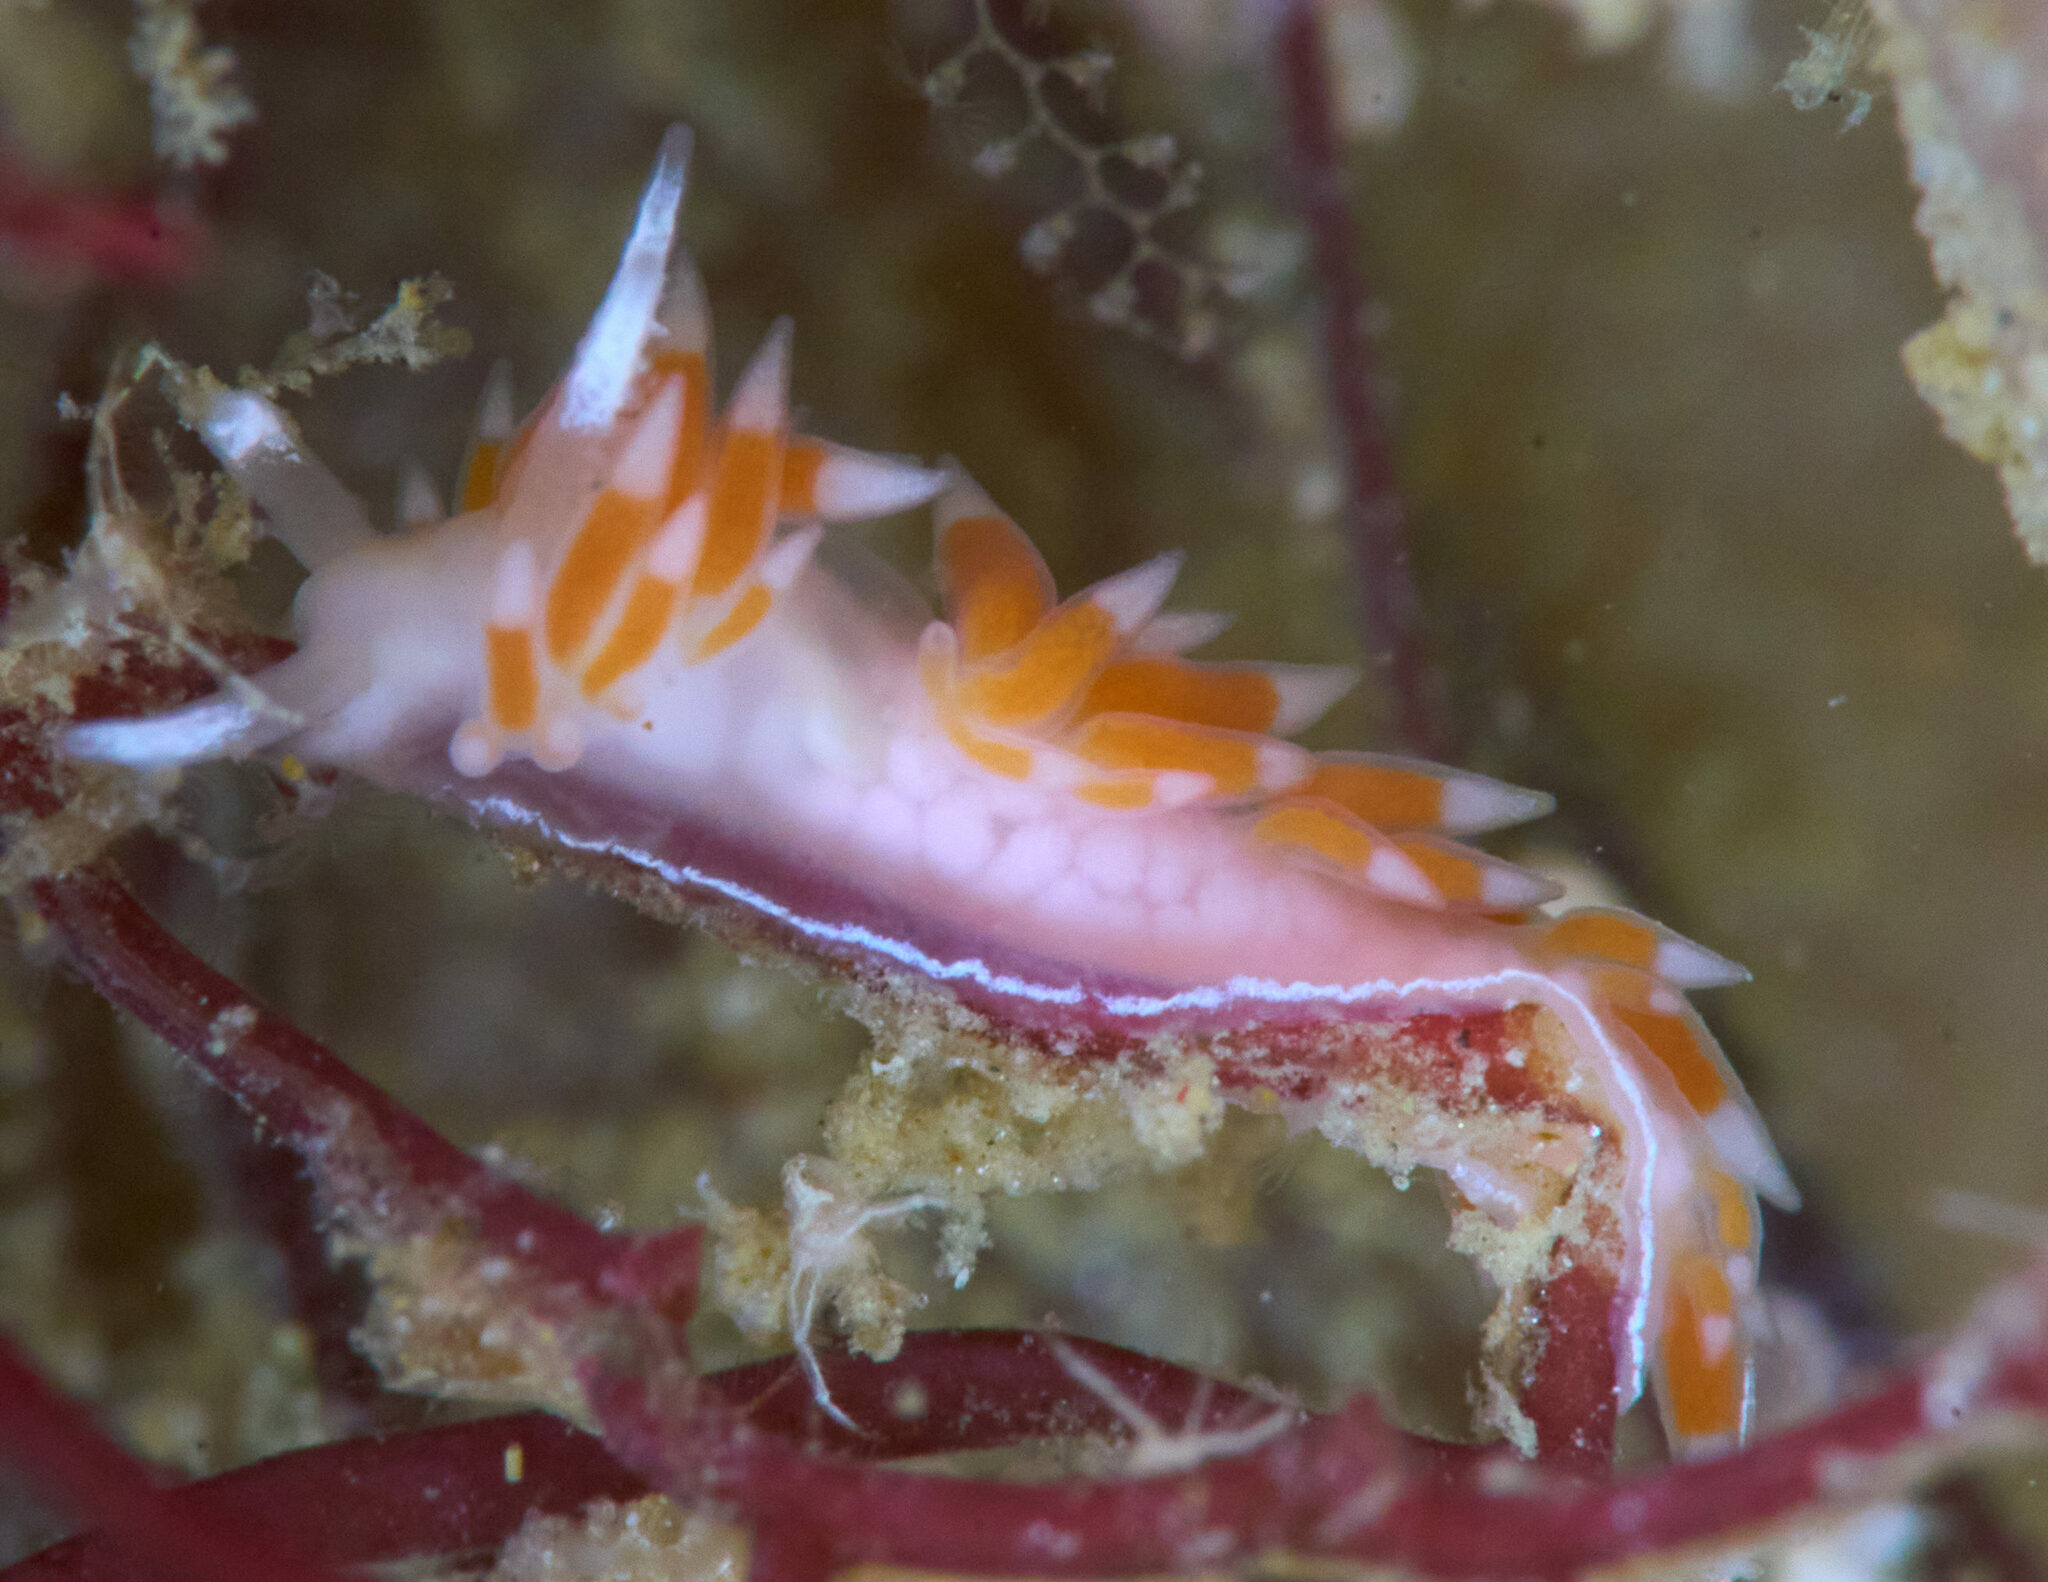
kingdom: Animalia
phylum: Mollusca
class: Gastropoda
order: Nudibranchia
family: Flabellinidae
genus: Coryphellina
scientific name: Coryphellina albomarginata
